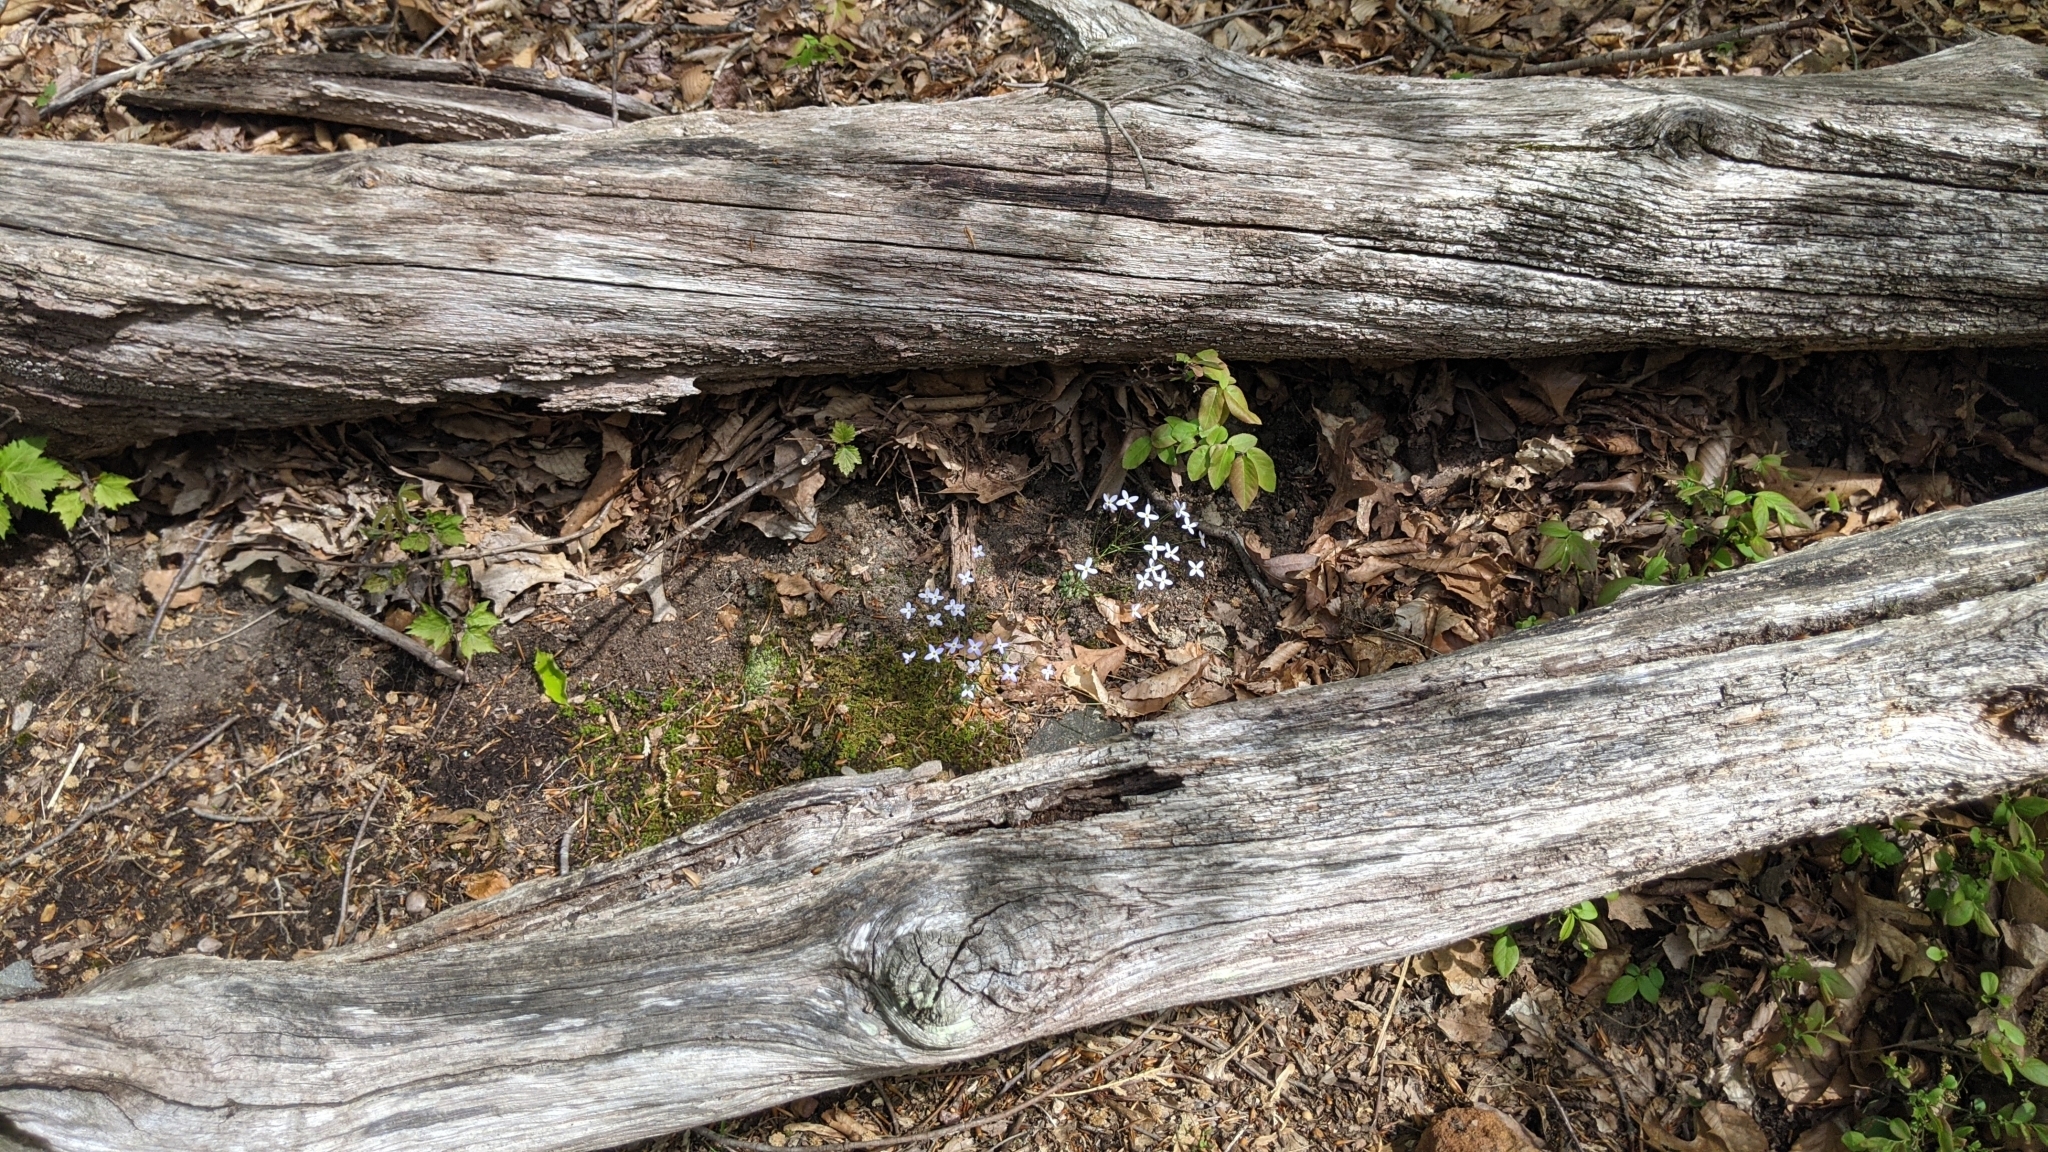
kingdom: Plantae
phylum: Tracheophyta
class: Magnoliopsida
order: Gentianales
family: Rubiaceae
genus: Houstonia
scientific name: Houstonia caerulea
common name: Bluets
